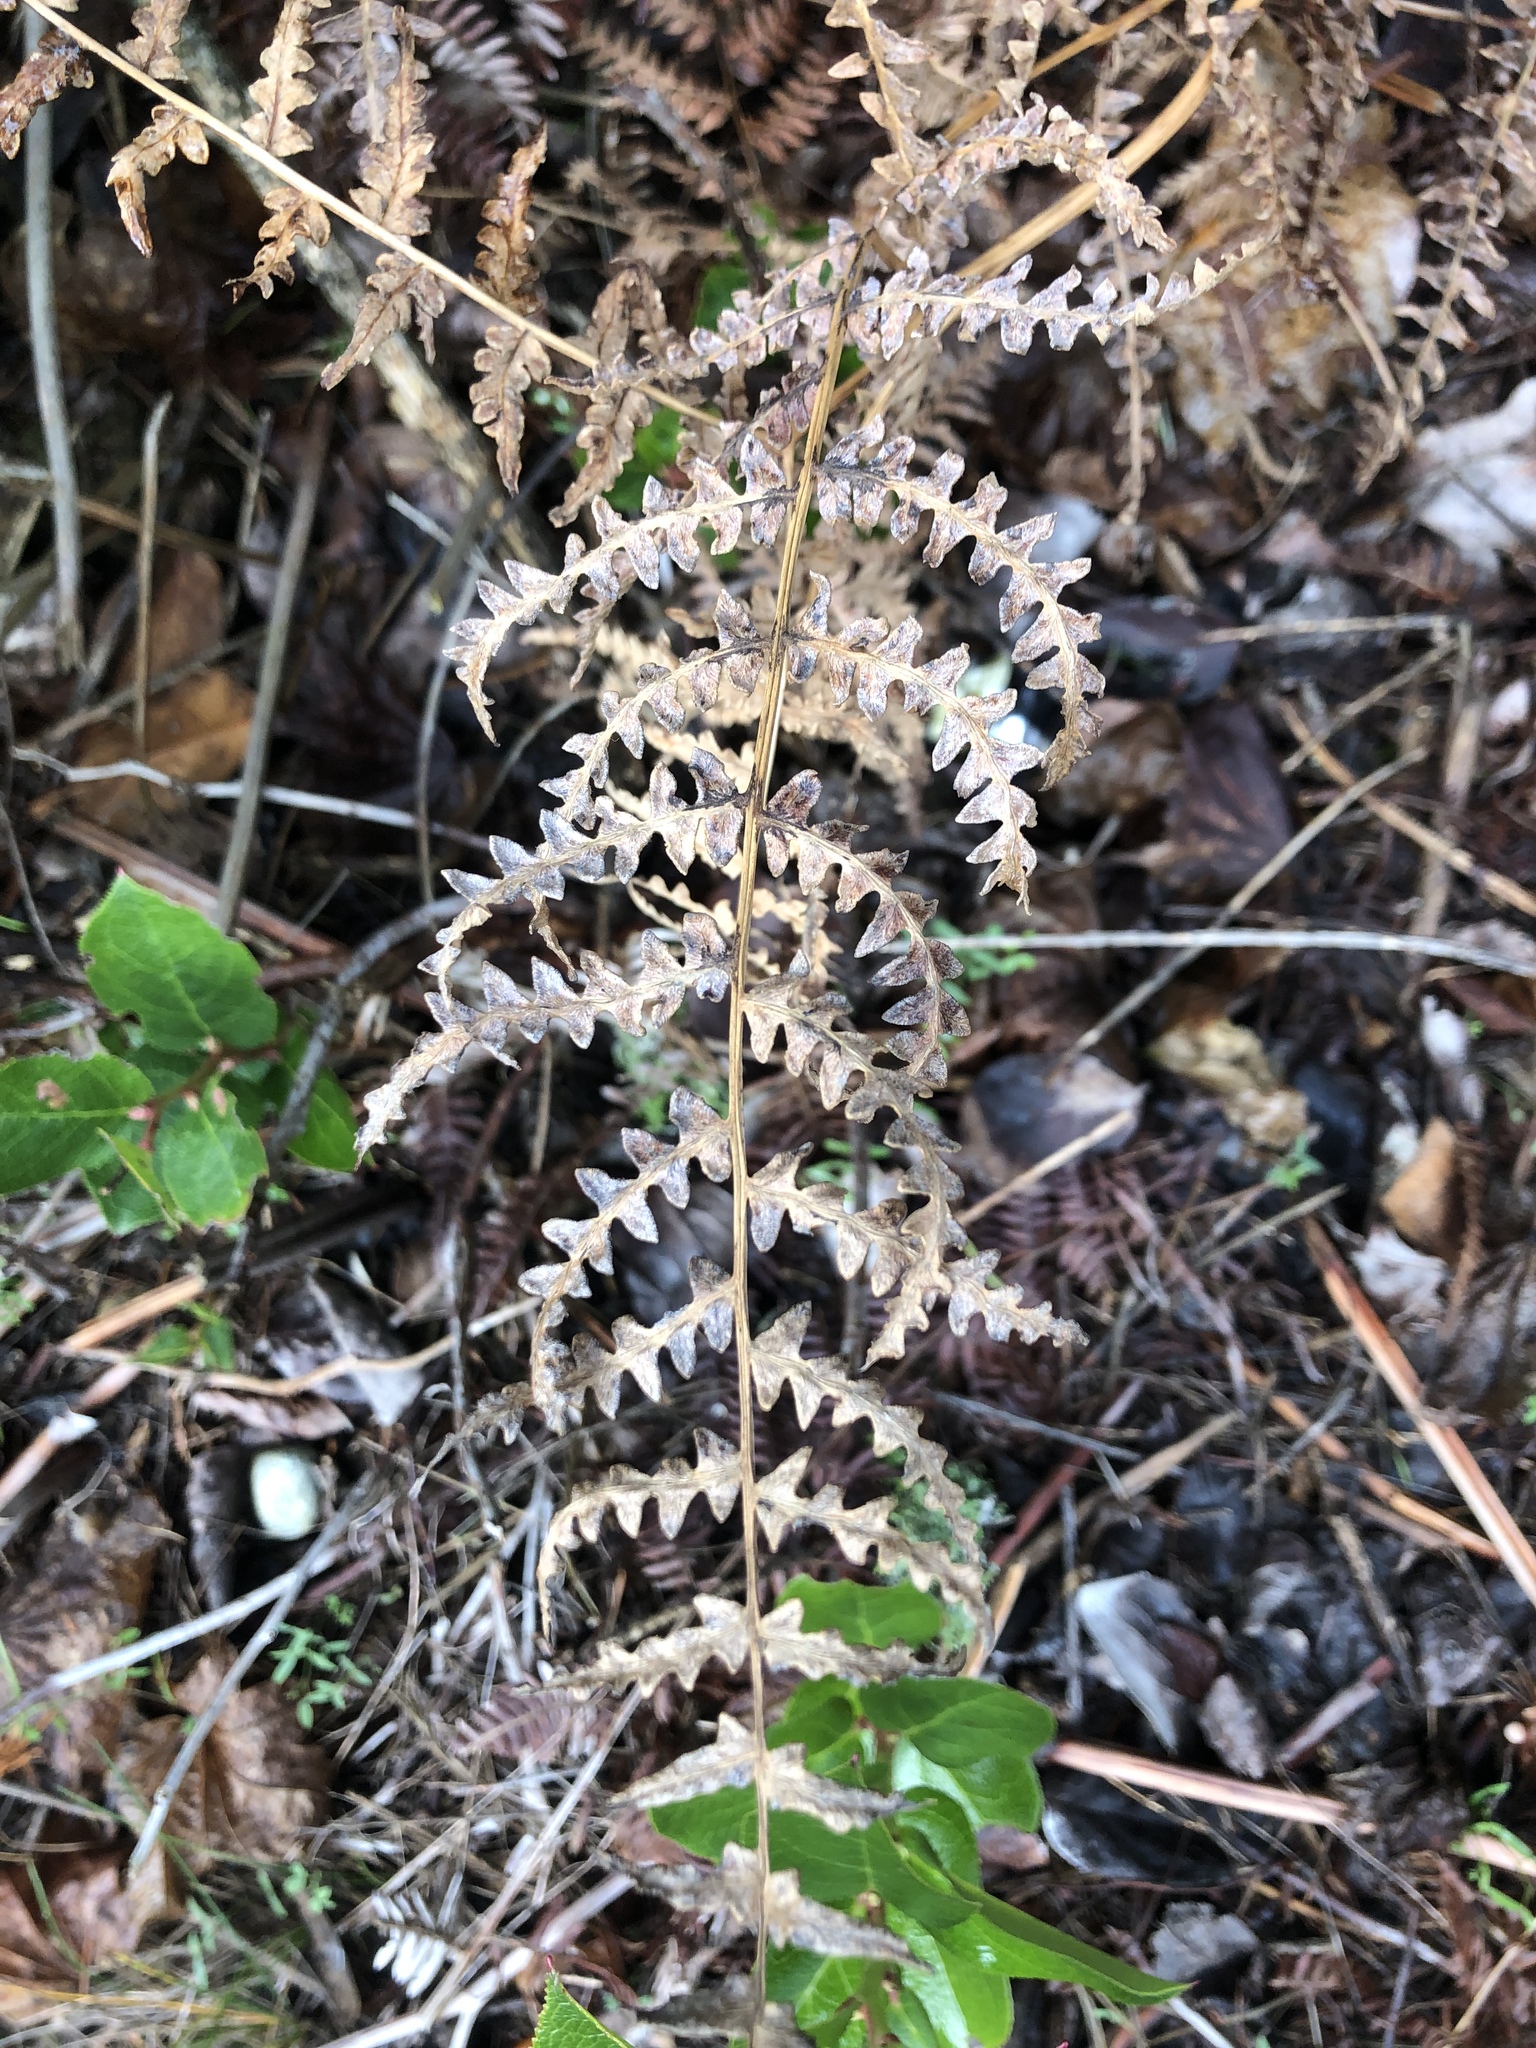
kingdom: Plantae
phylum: Tracheophyta
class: Polypodiopsida
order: Polypodiales
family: Dennstaedtiaceae
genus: Pteridium
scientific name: Pteridium aquilinum
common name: Bracken
